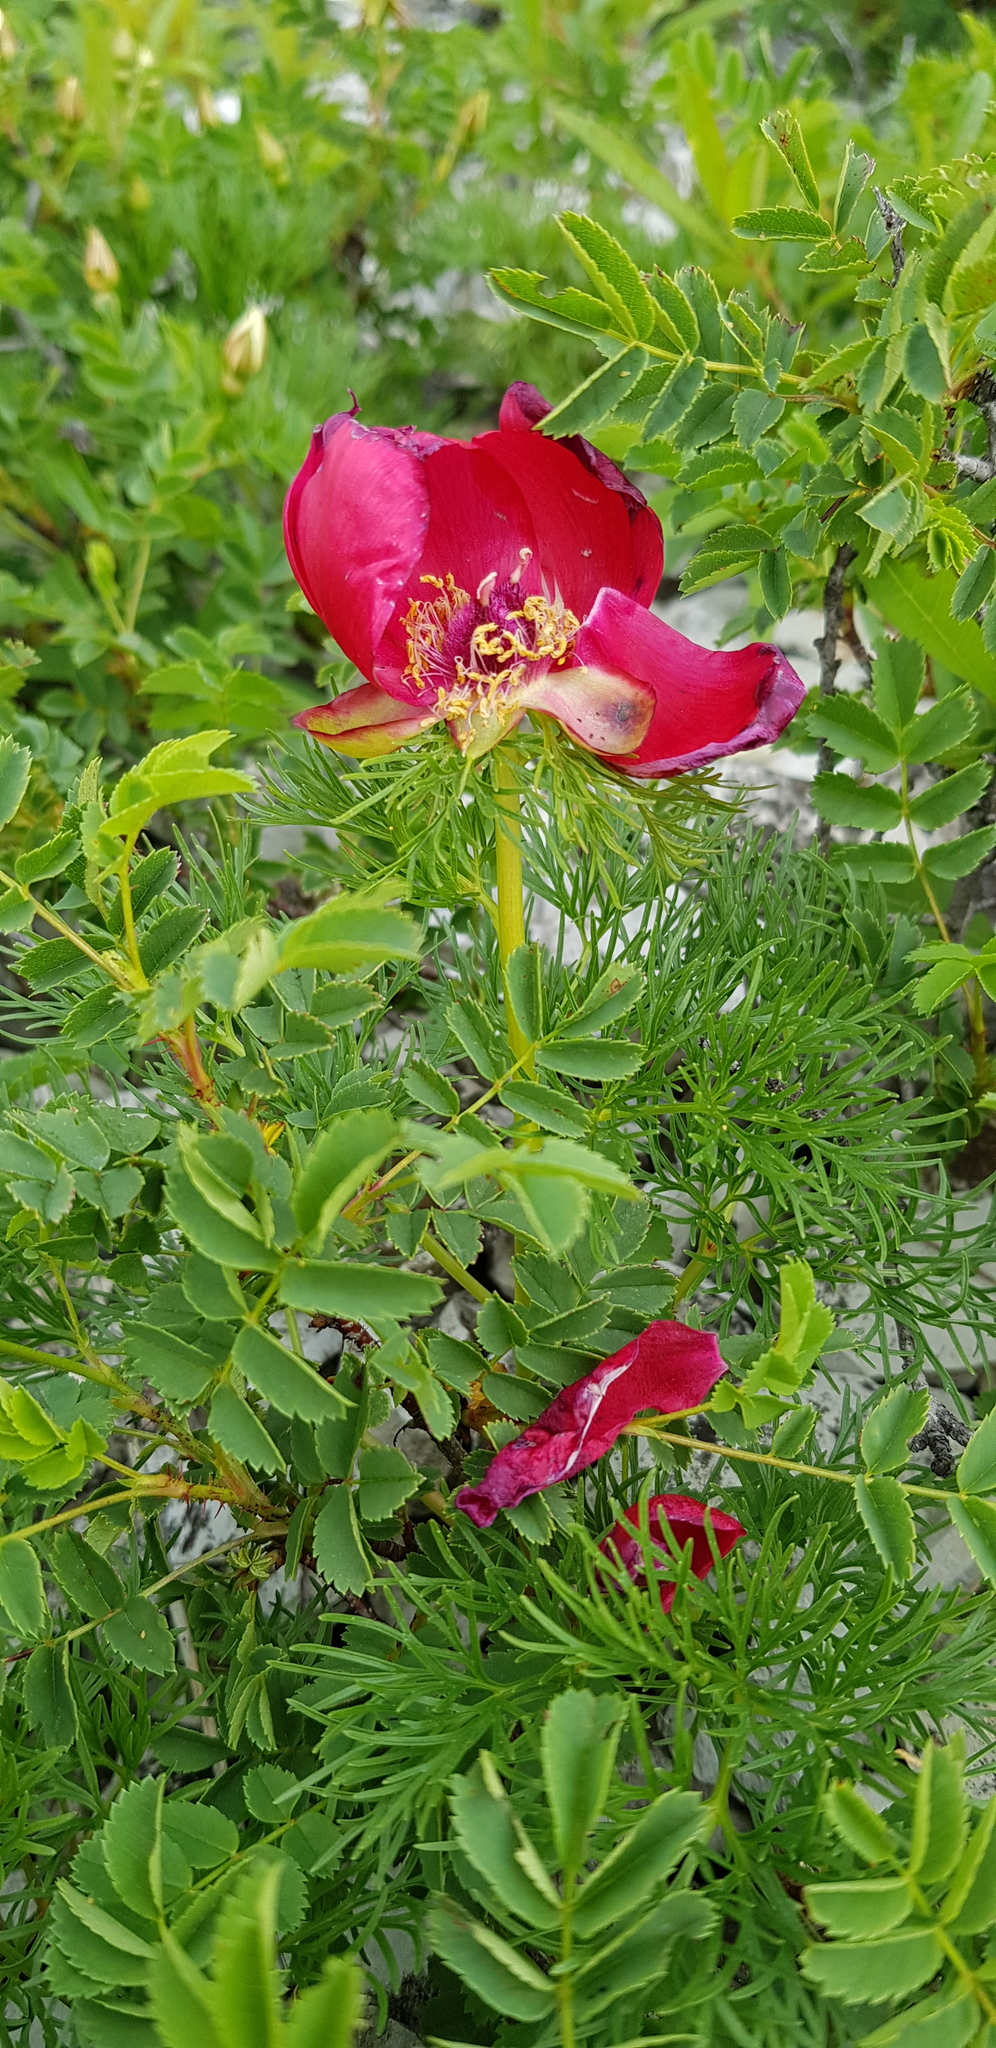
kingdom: Plantae
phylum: Tracheophyta
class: Magnoliopsida
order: Saxifragales
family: Paeoniaceae
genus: Paeonia
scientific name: Paeonia tenuifolia
